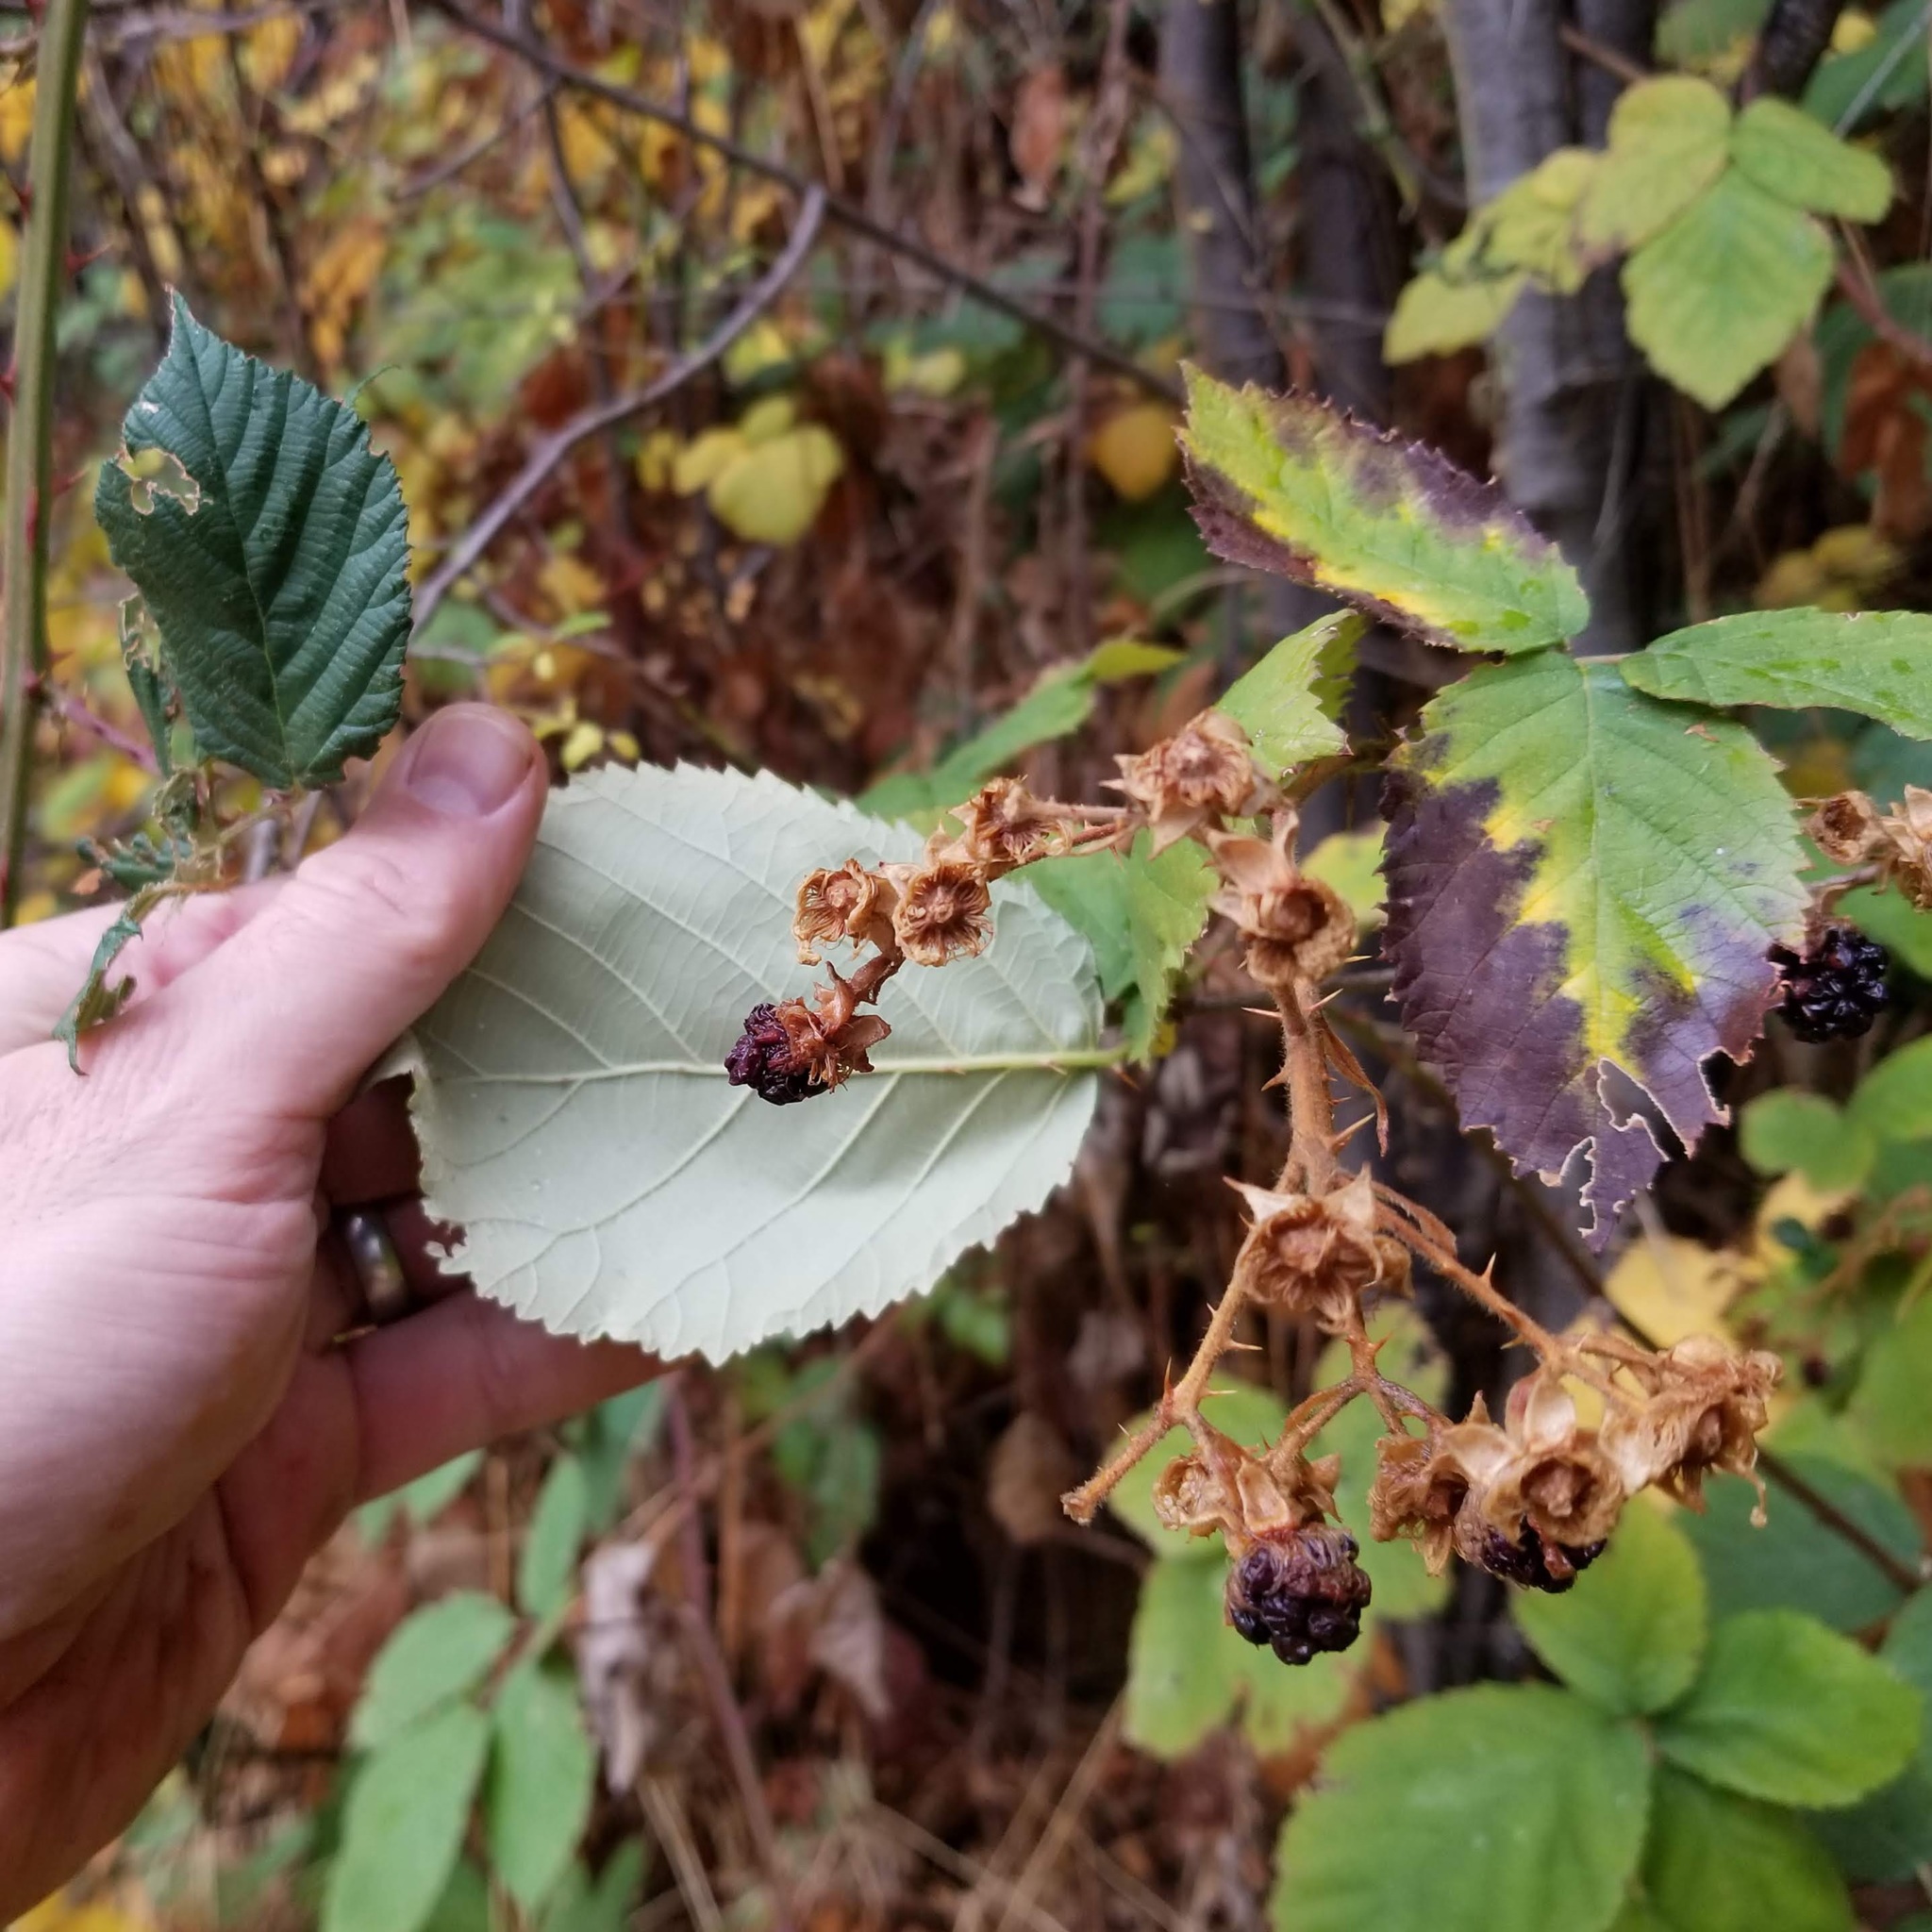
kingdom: Plantae
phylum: Tracheophyta
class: Magnoliopsida
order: Rosales
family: Rosaceae
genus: Rubus
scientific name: Rubus armeniacus
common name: Himalayan blackberry
